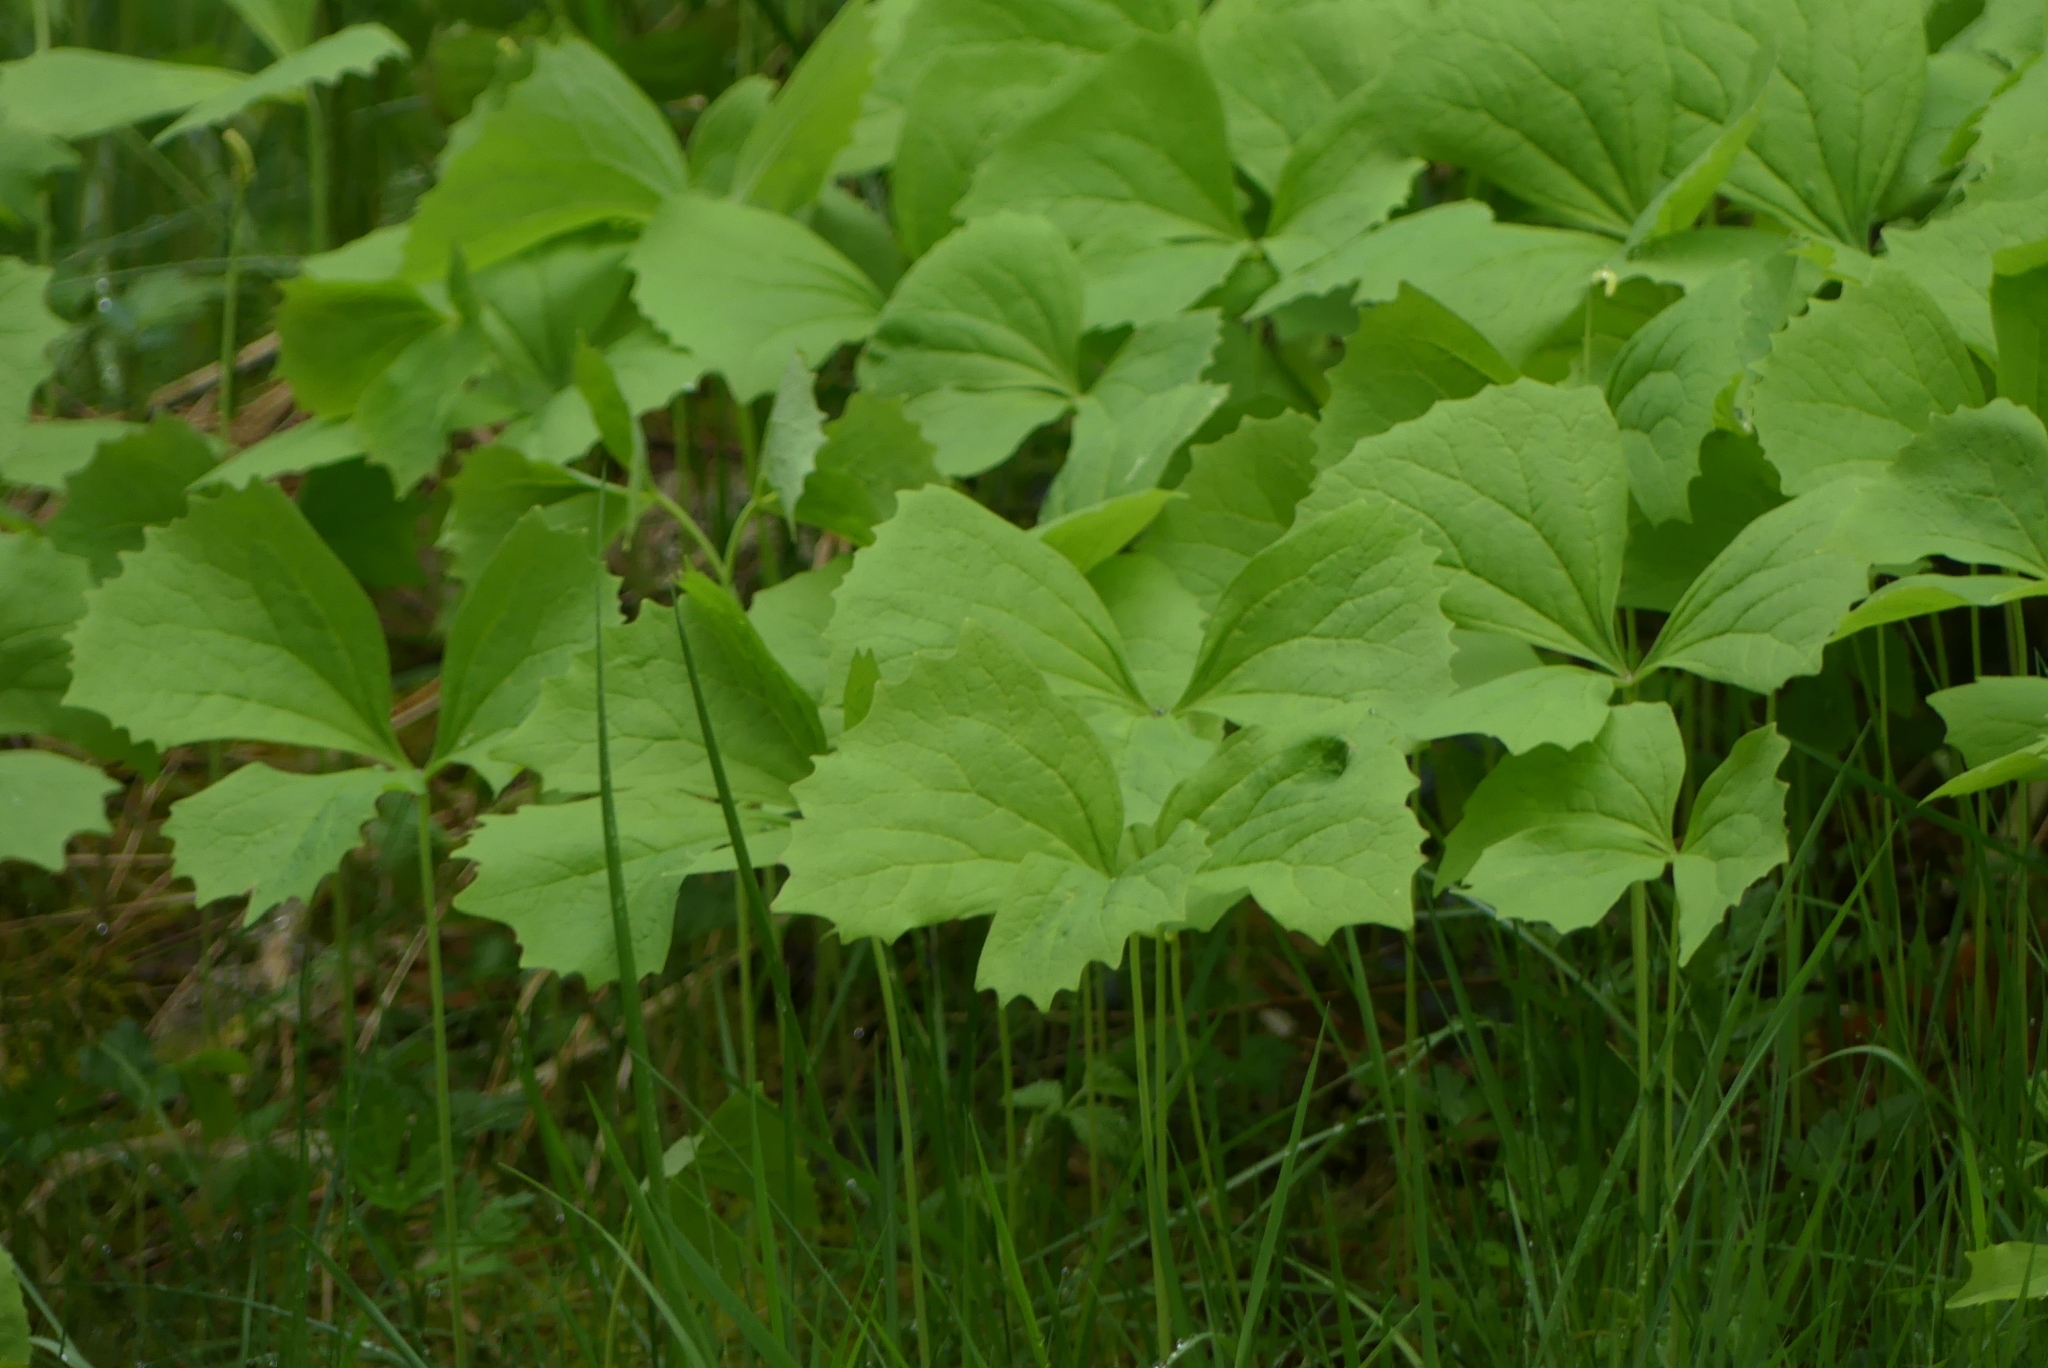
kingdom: Plantae
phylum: Tracheophyta
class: Magnoliopsida
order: Ranunculales
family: Berberidaceae
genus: Achlys
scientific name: Achlys triphylla
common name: Vanilla-leaf
